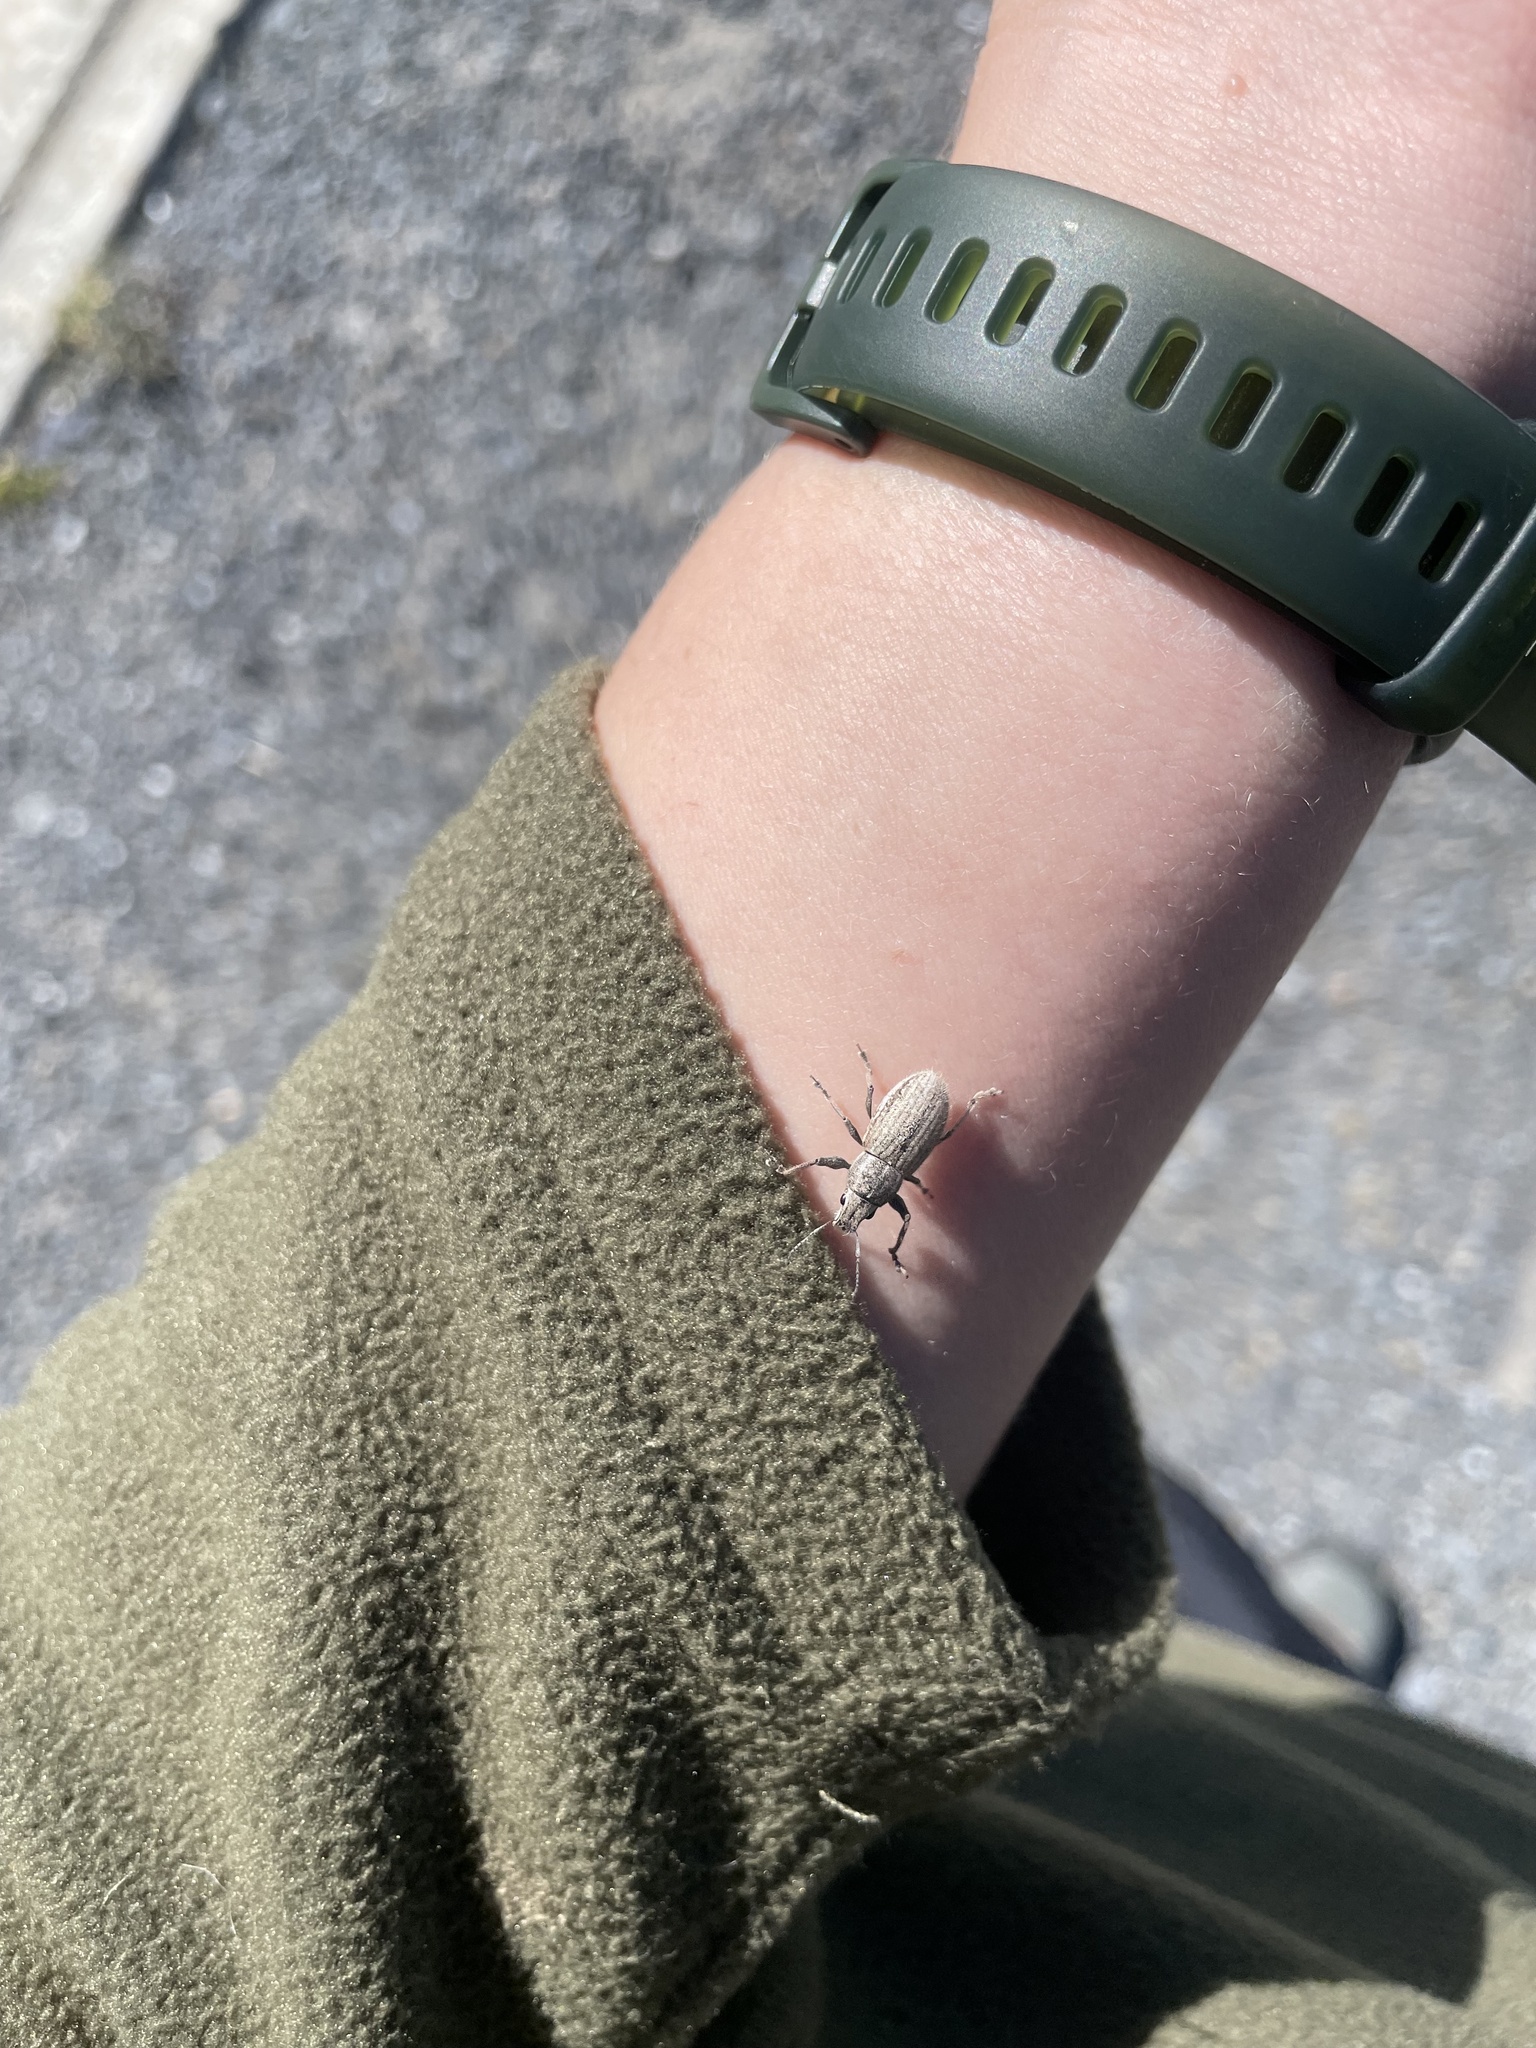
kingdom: Animalia
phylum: Arthropoda
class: Insecta
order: Coleoptera
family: Curculionidae
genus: Naupactus
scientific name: Naupactus leucoloma
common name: Whitefringed beetle
